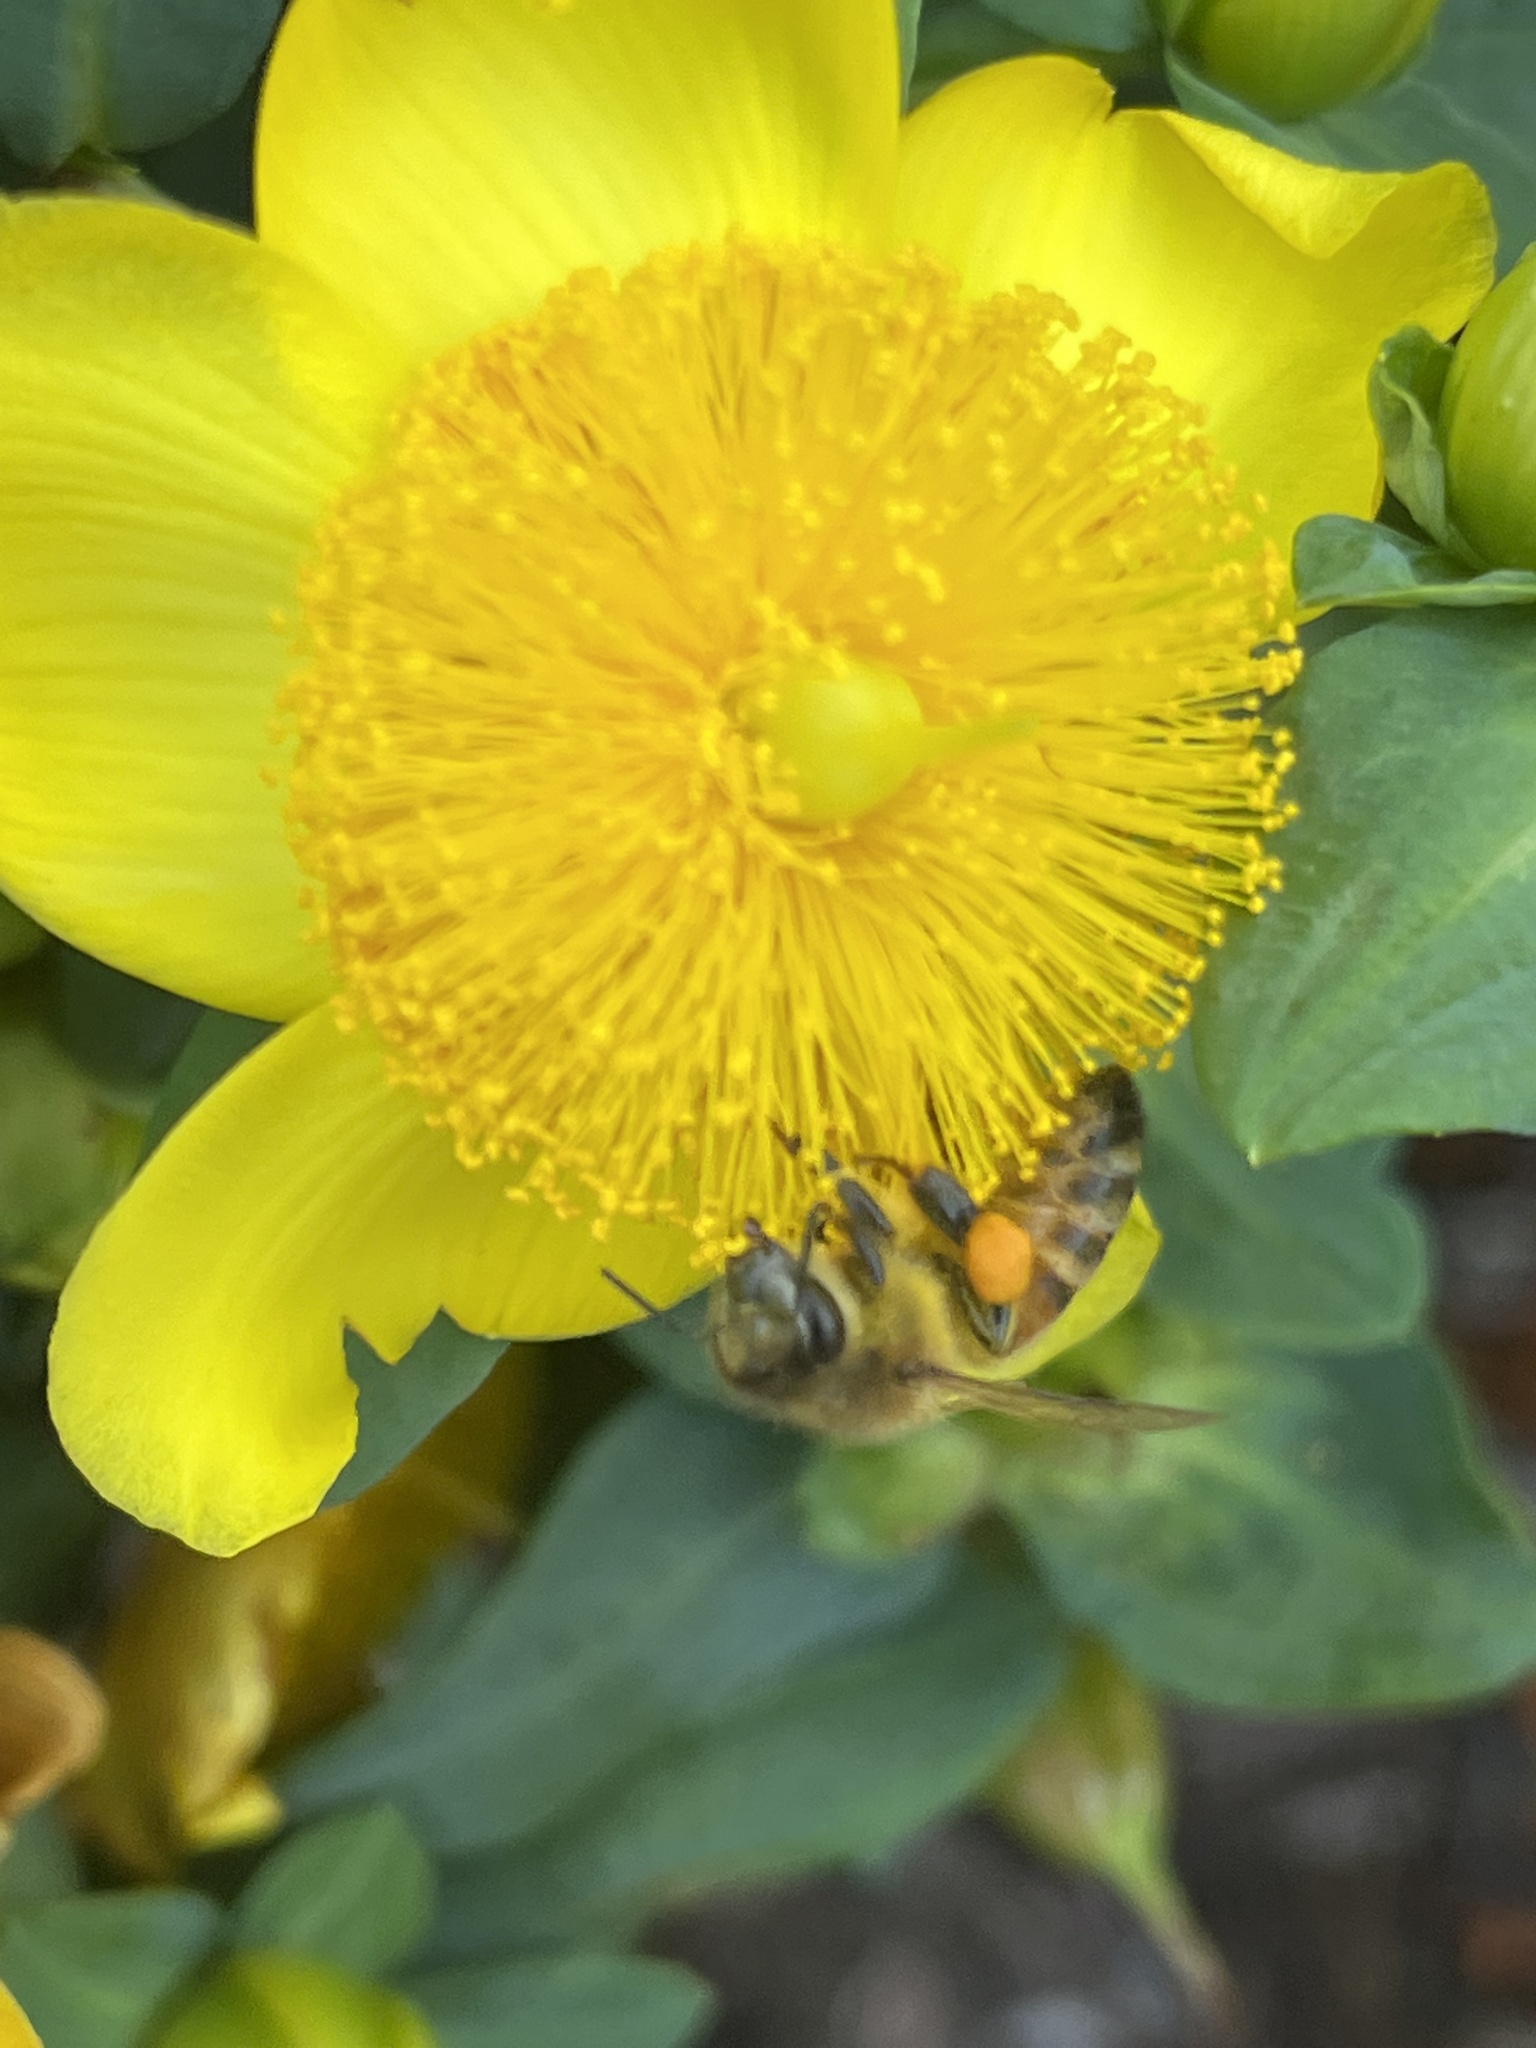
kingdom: Animalia
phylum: Arthropoda
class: Insecta
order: Hymenoptera
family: Apidae
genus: Apis
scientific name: Apis mellifera
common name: Honey bee
